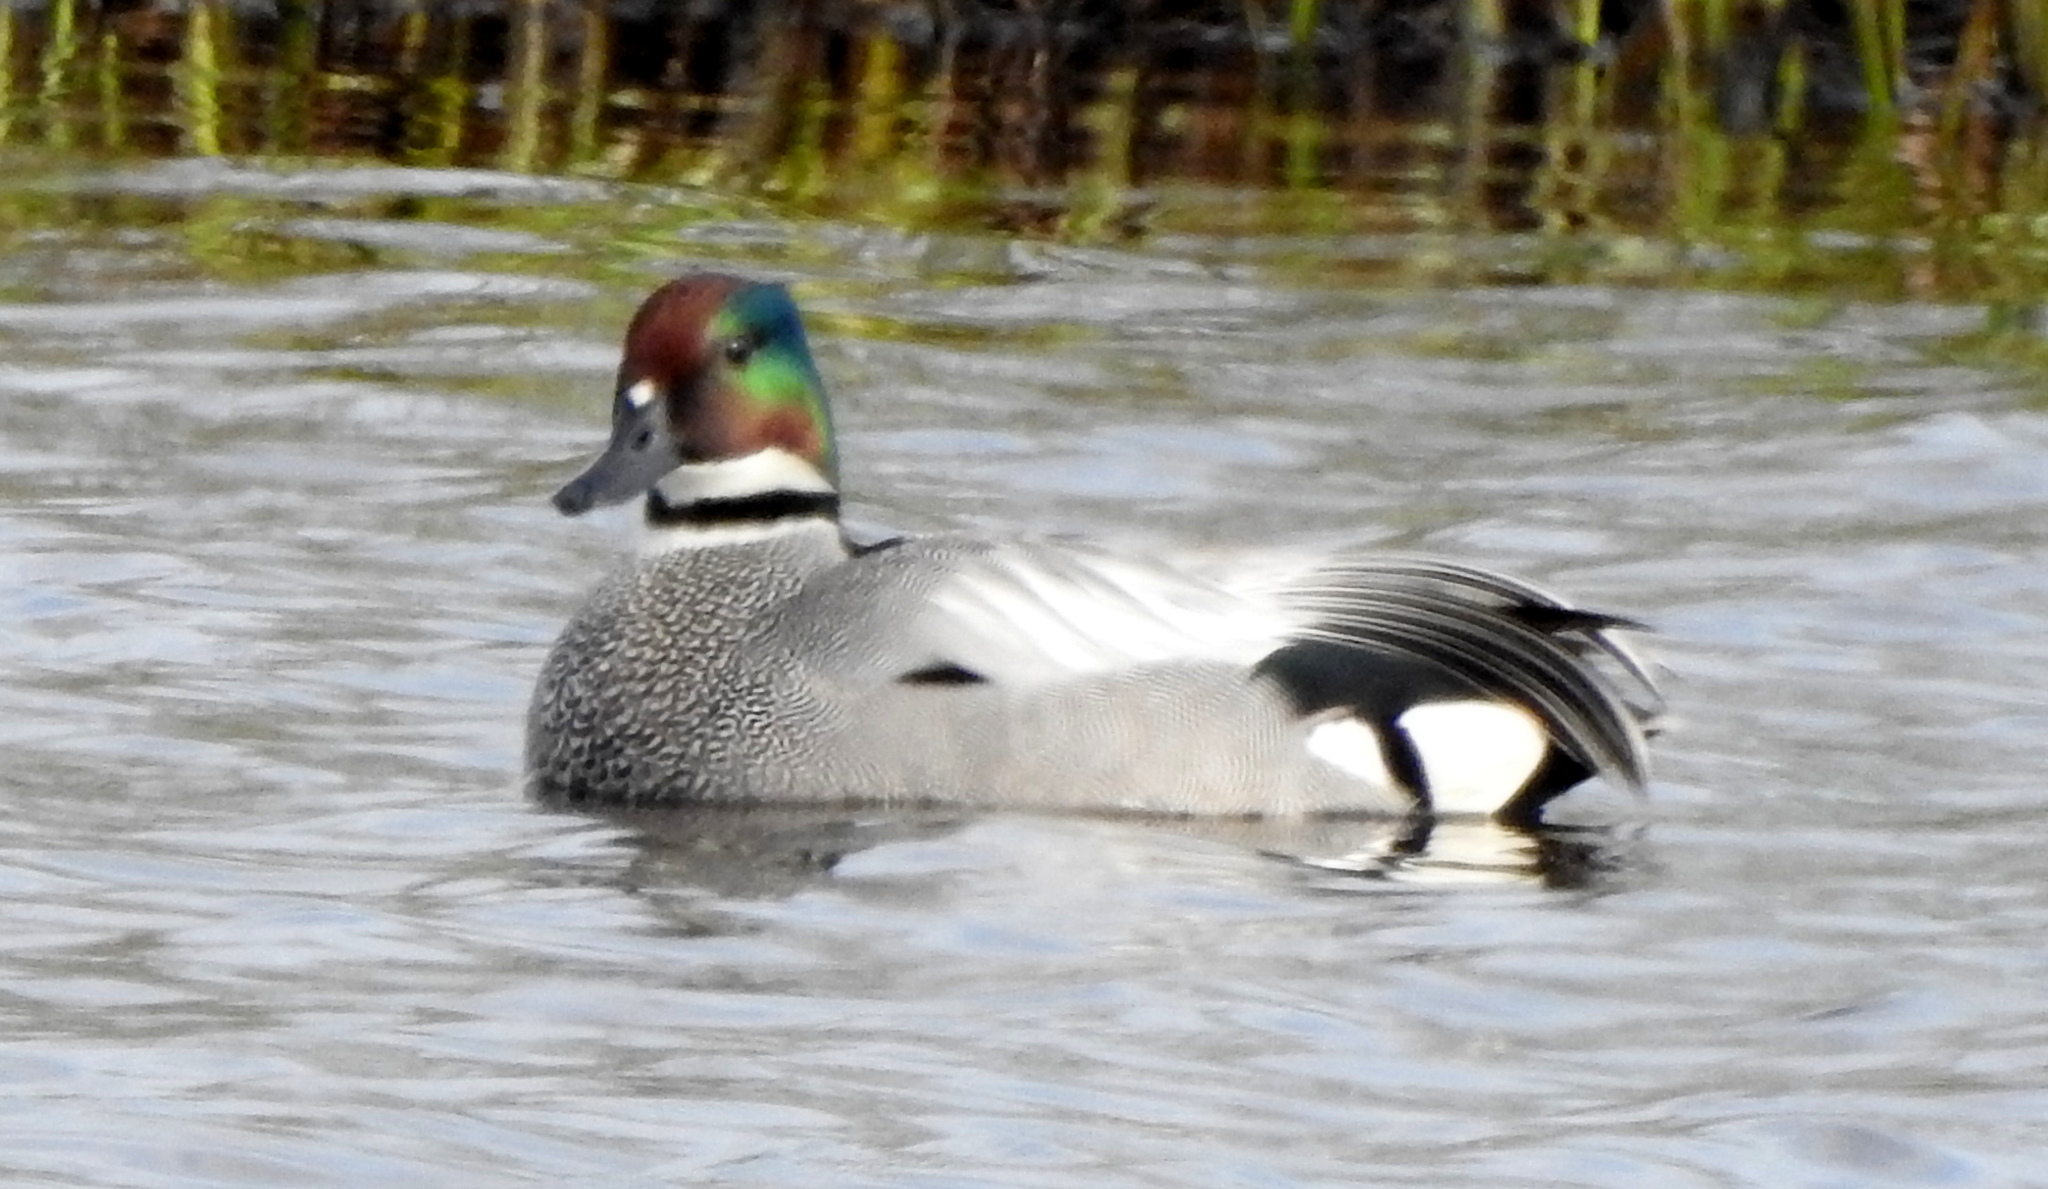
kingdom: Animalia
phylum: Chordata
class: Aves
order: Anseriformes
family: Anatidae
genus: Mareca
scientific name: Mareca falcata
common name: Falcated duck
